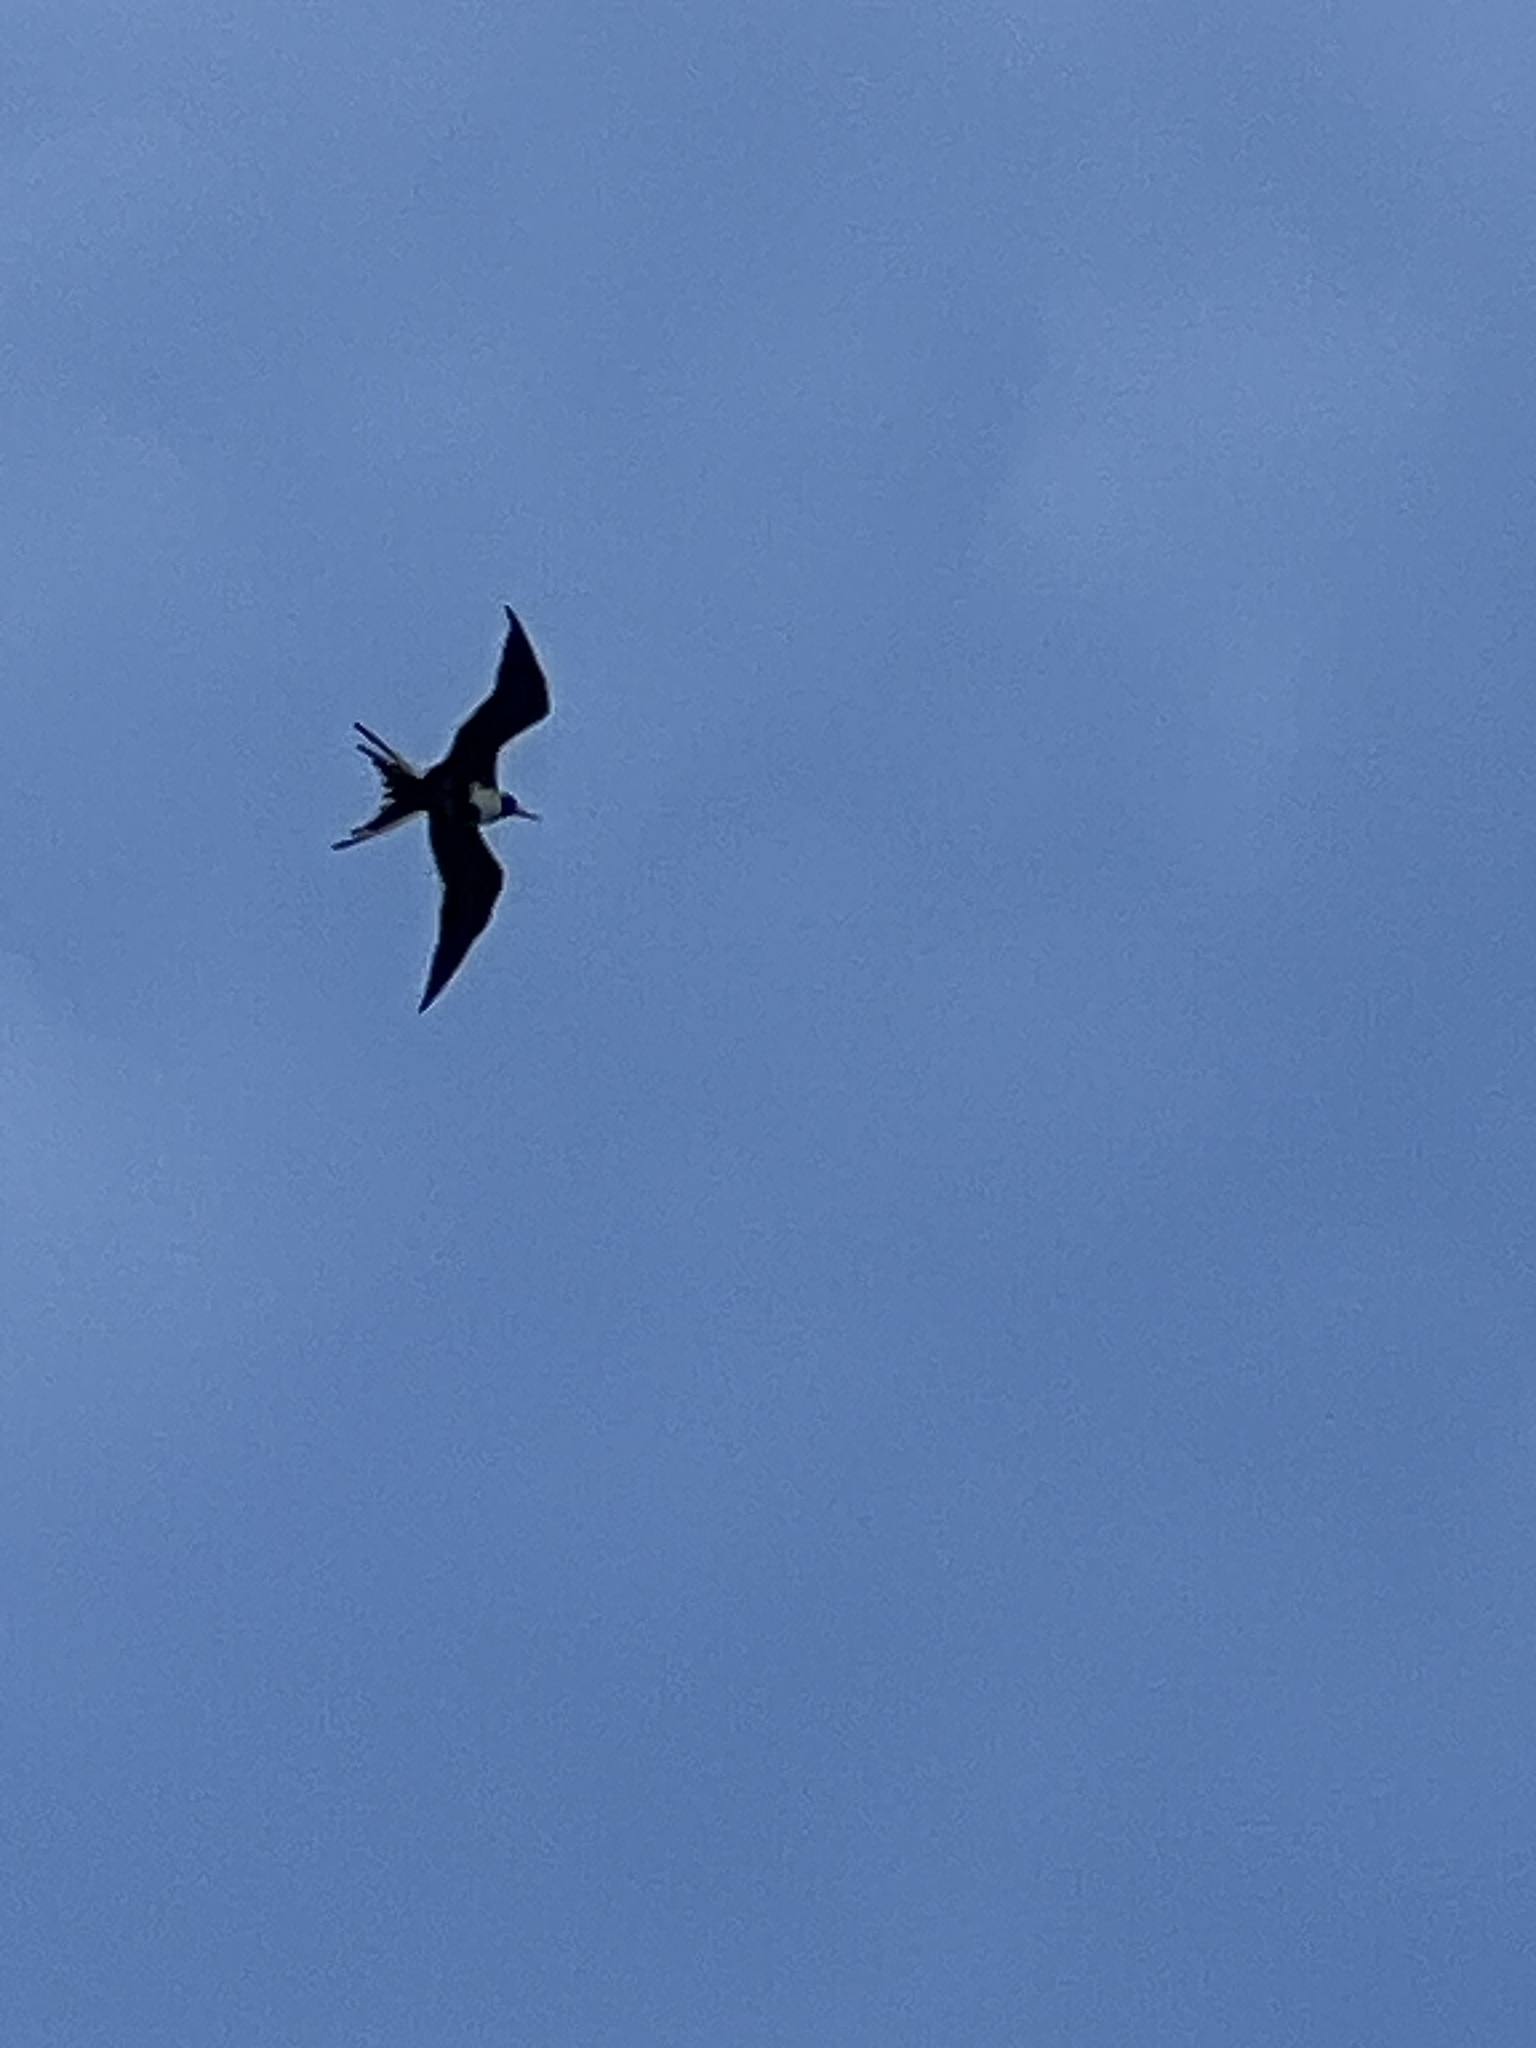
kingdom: Animalia
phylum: Chordata
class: Aves
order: Suliformes
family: Fregatidae
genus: Fregata
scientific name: Fregata magnificens
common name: Magnificent frigatebird
